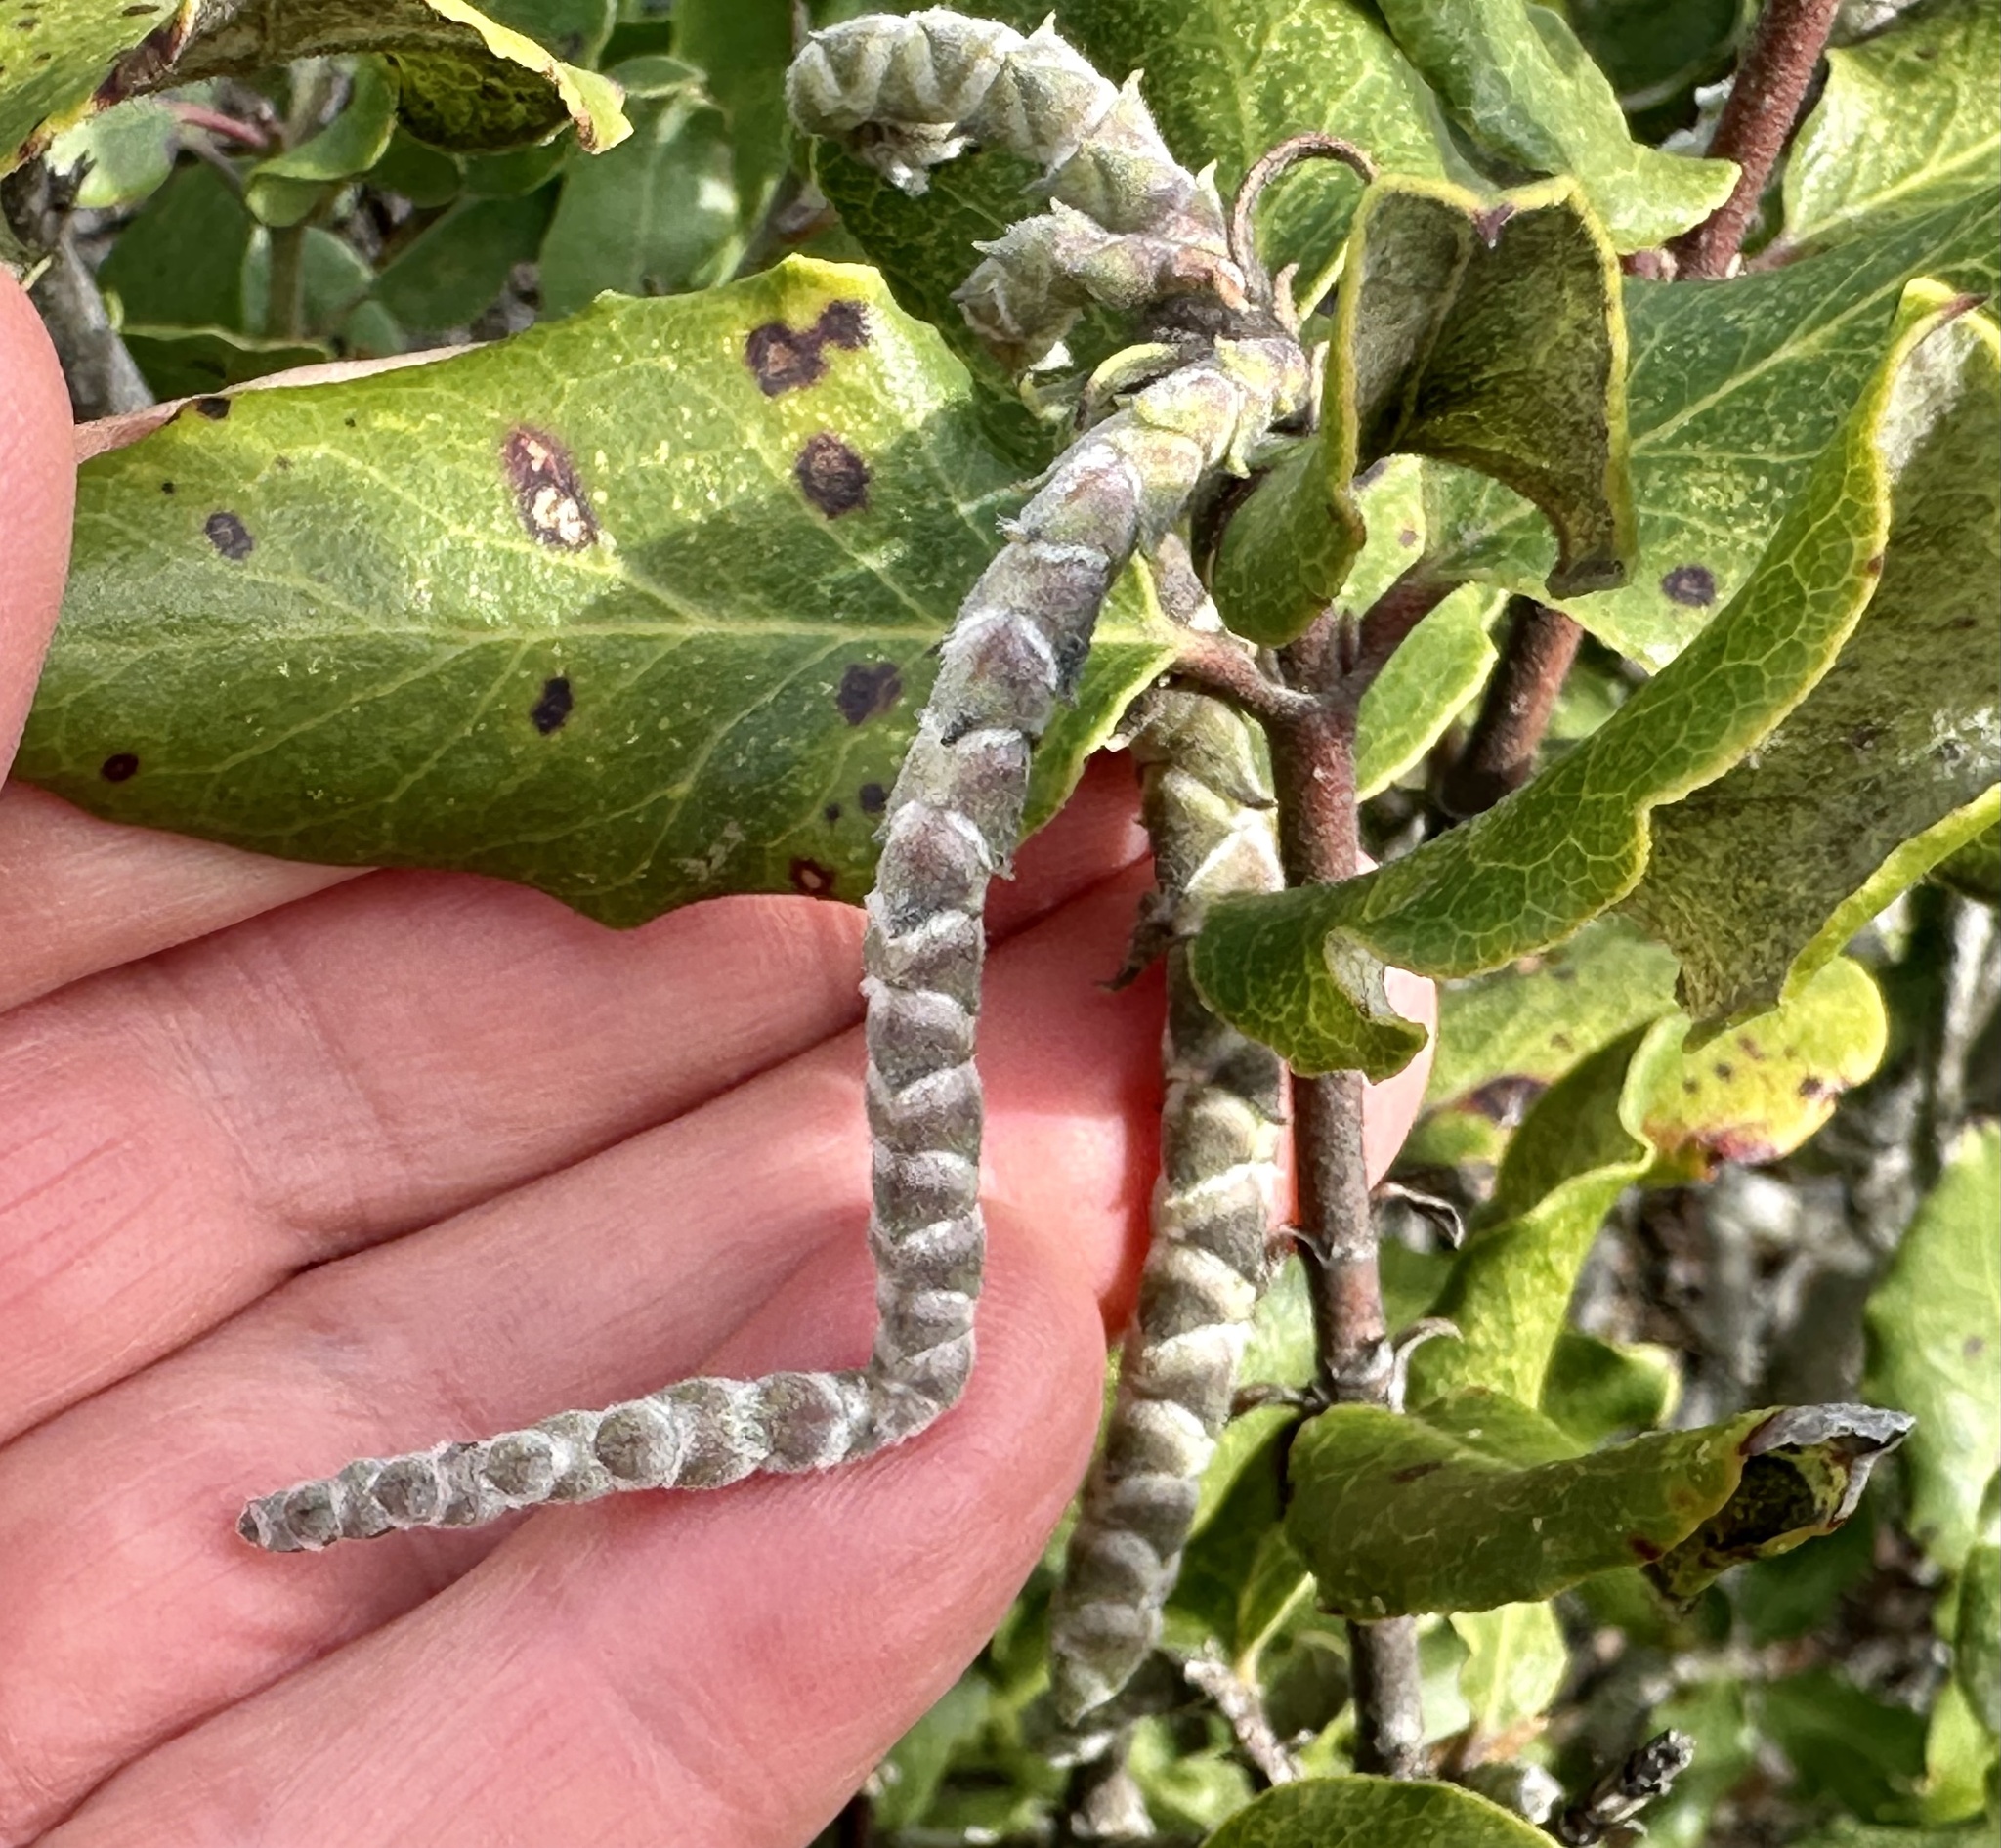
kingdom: Plantae
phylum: Tracheophyta
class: Magnoliopsida
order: Garryales
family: Garryaceae
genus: Garrya
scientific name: Garrya elliptica
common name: Silk-tassel
